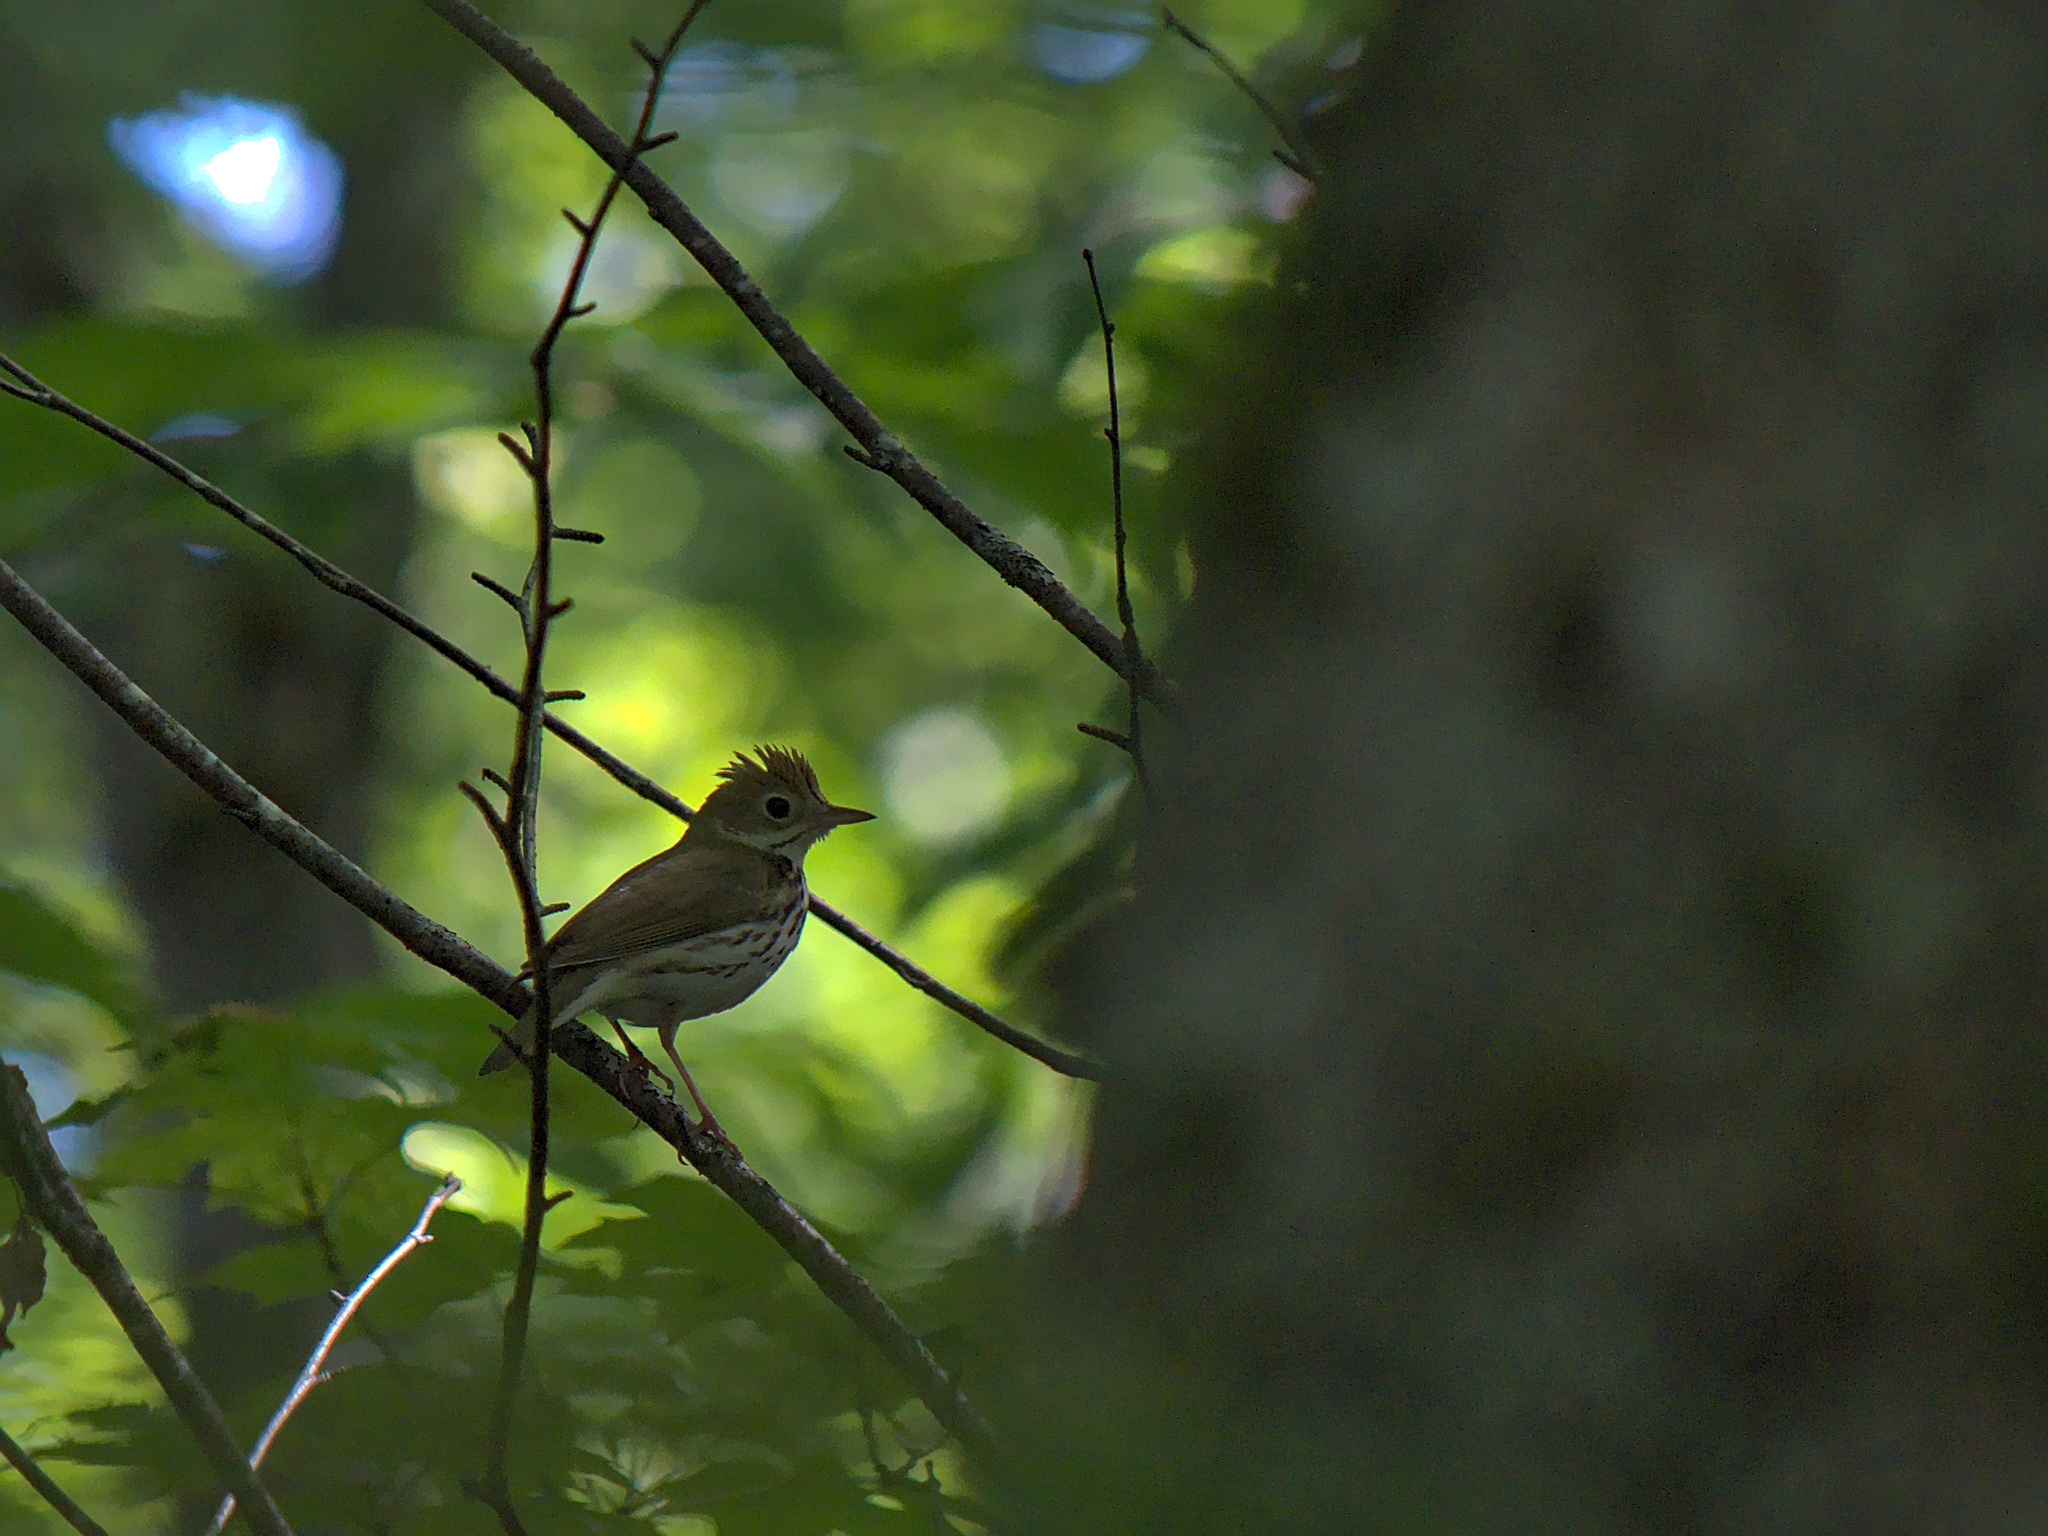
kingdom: Animalia
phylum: Chordata
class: Aves
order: Passeriformes
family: Parulidae
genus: Seiurus
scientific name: Seiurus aurocapilla
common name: Ovenbird
